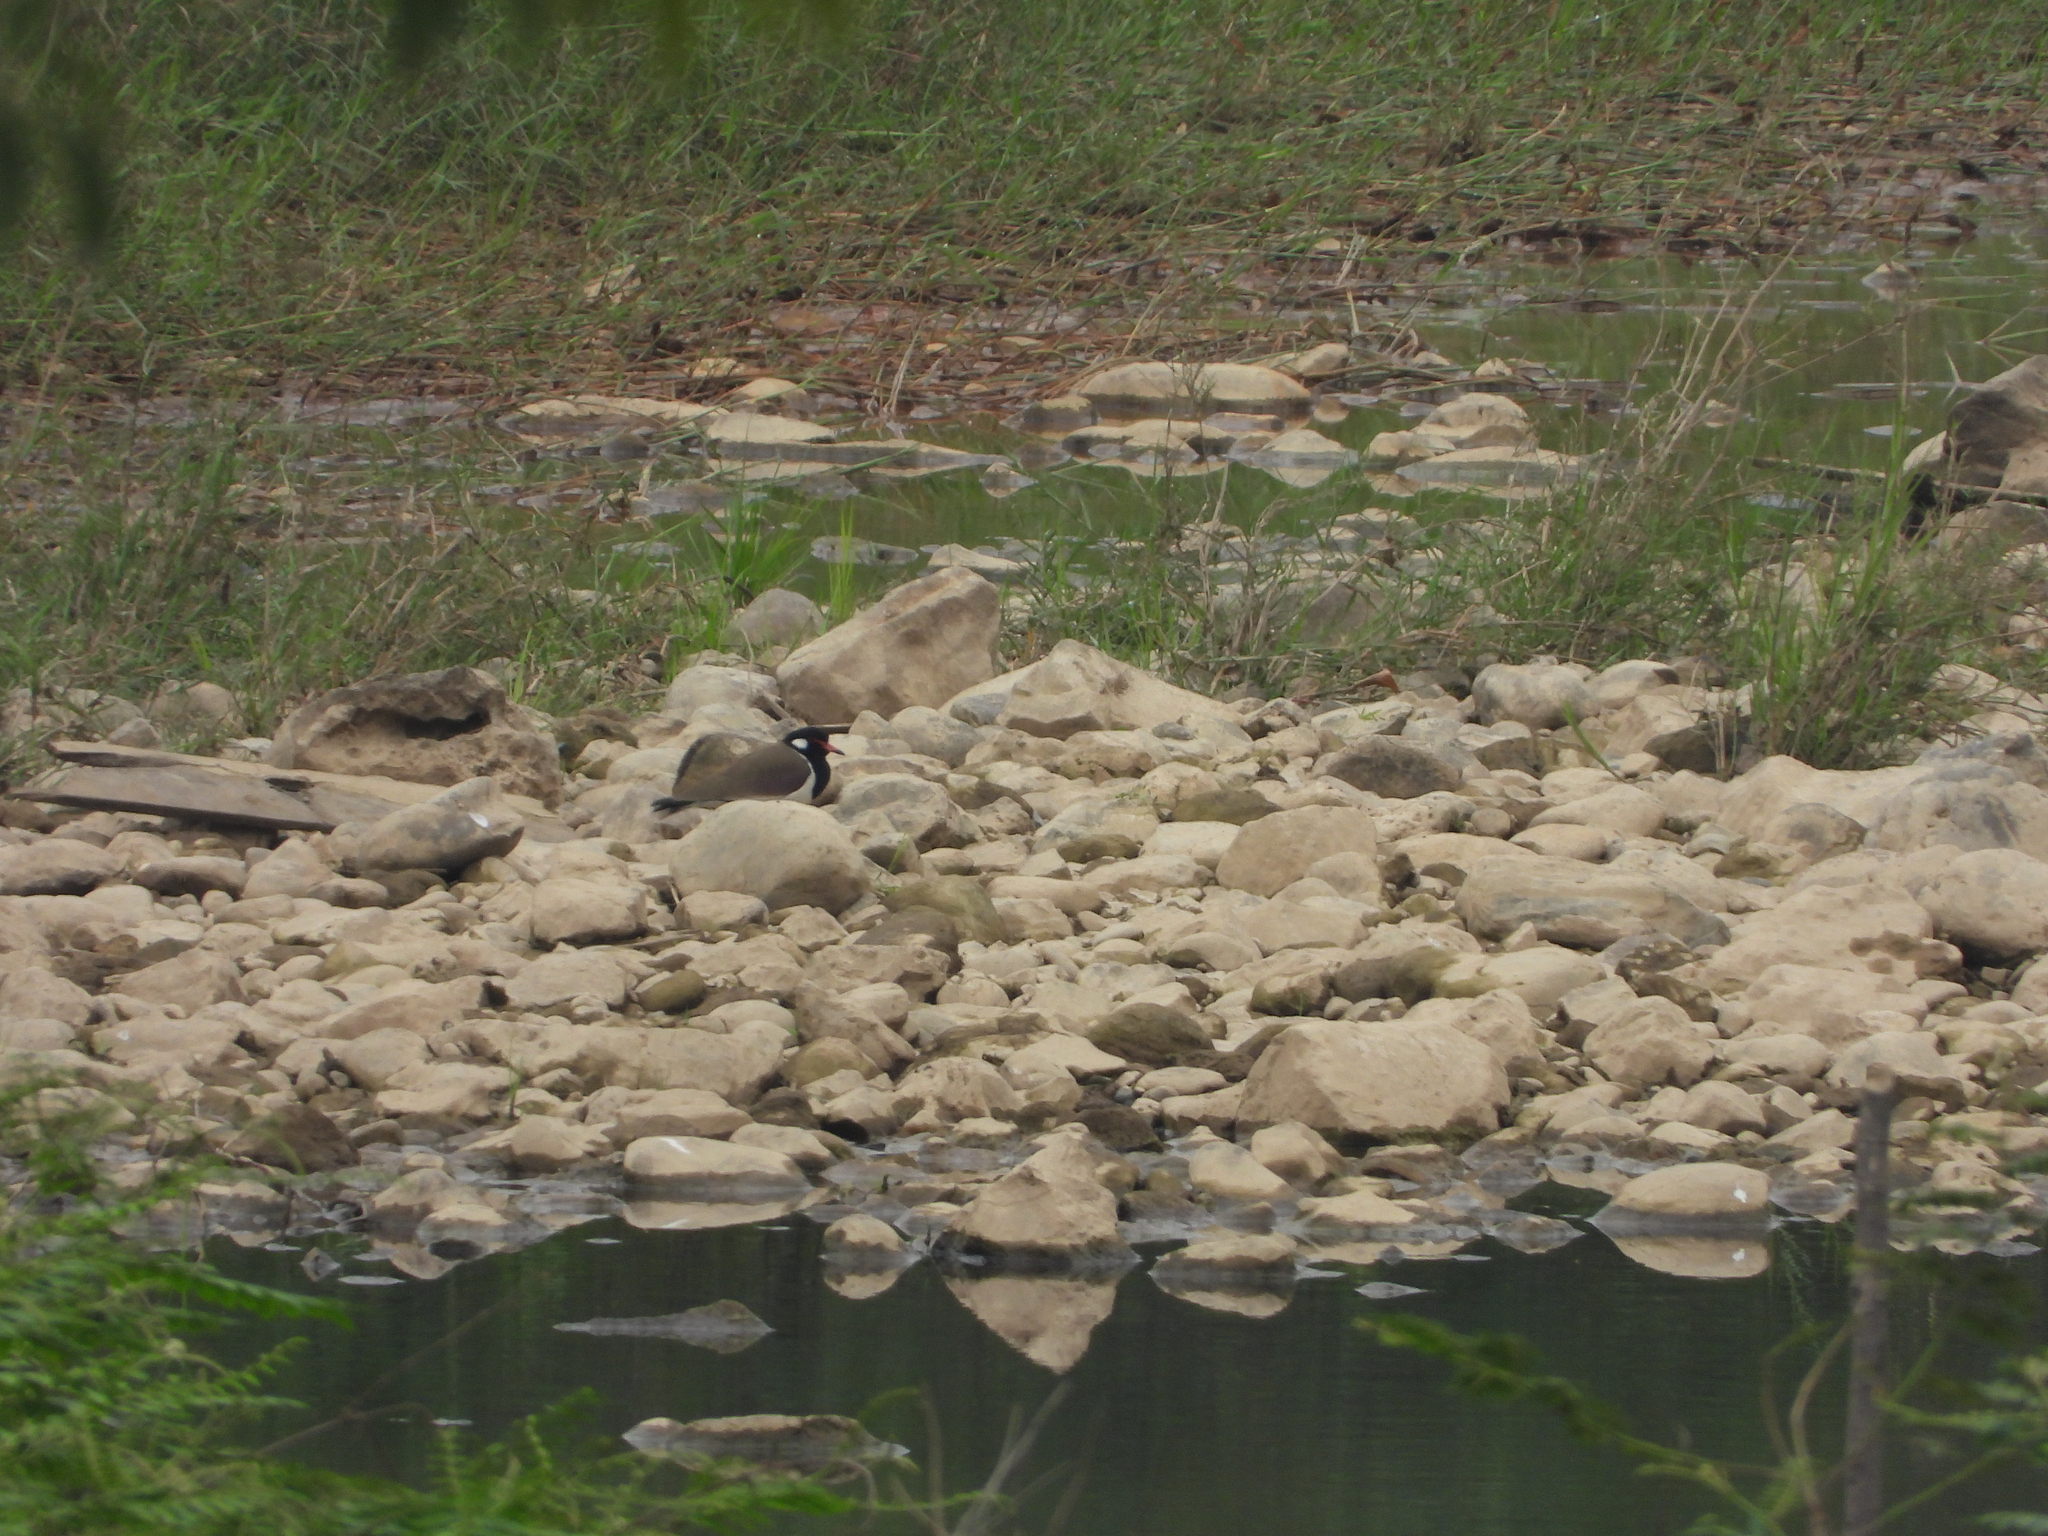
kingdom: Animalia
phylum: Chordata
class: Aves
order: Charadriiformes
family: Charadriidae
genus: Vanellus
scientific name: Vanellus indicus
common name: Red-wattled lapwing
